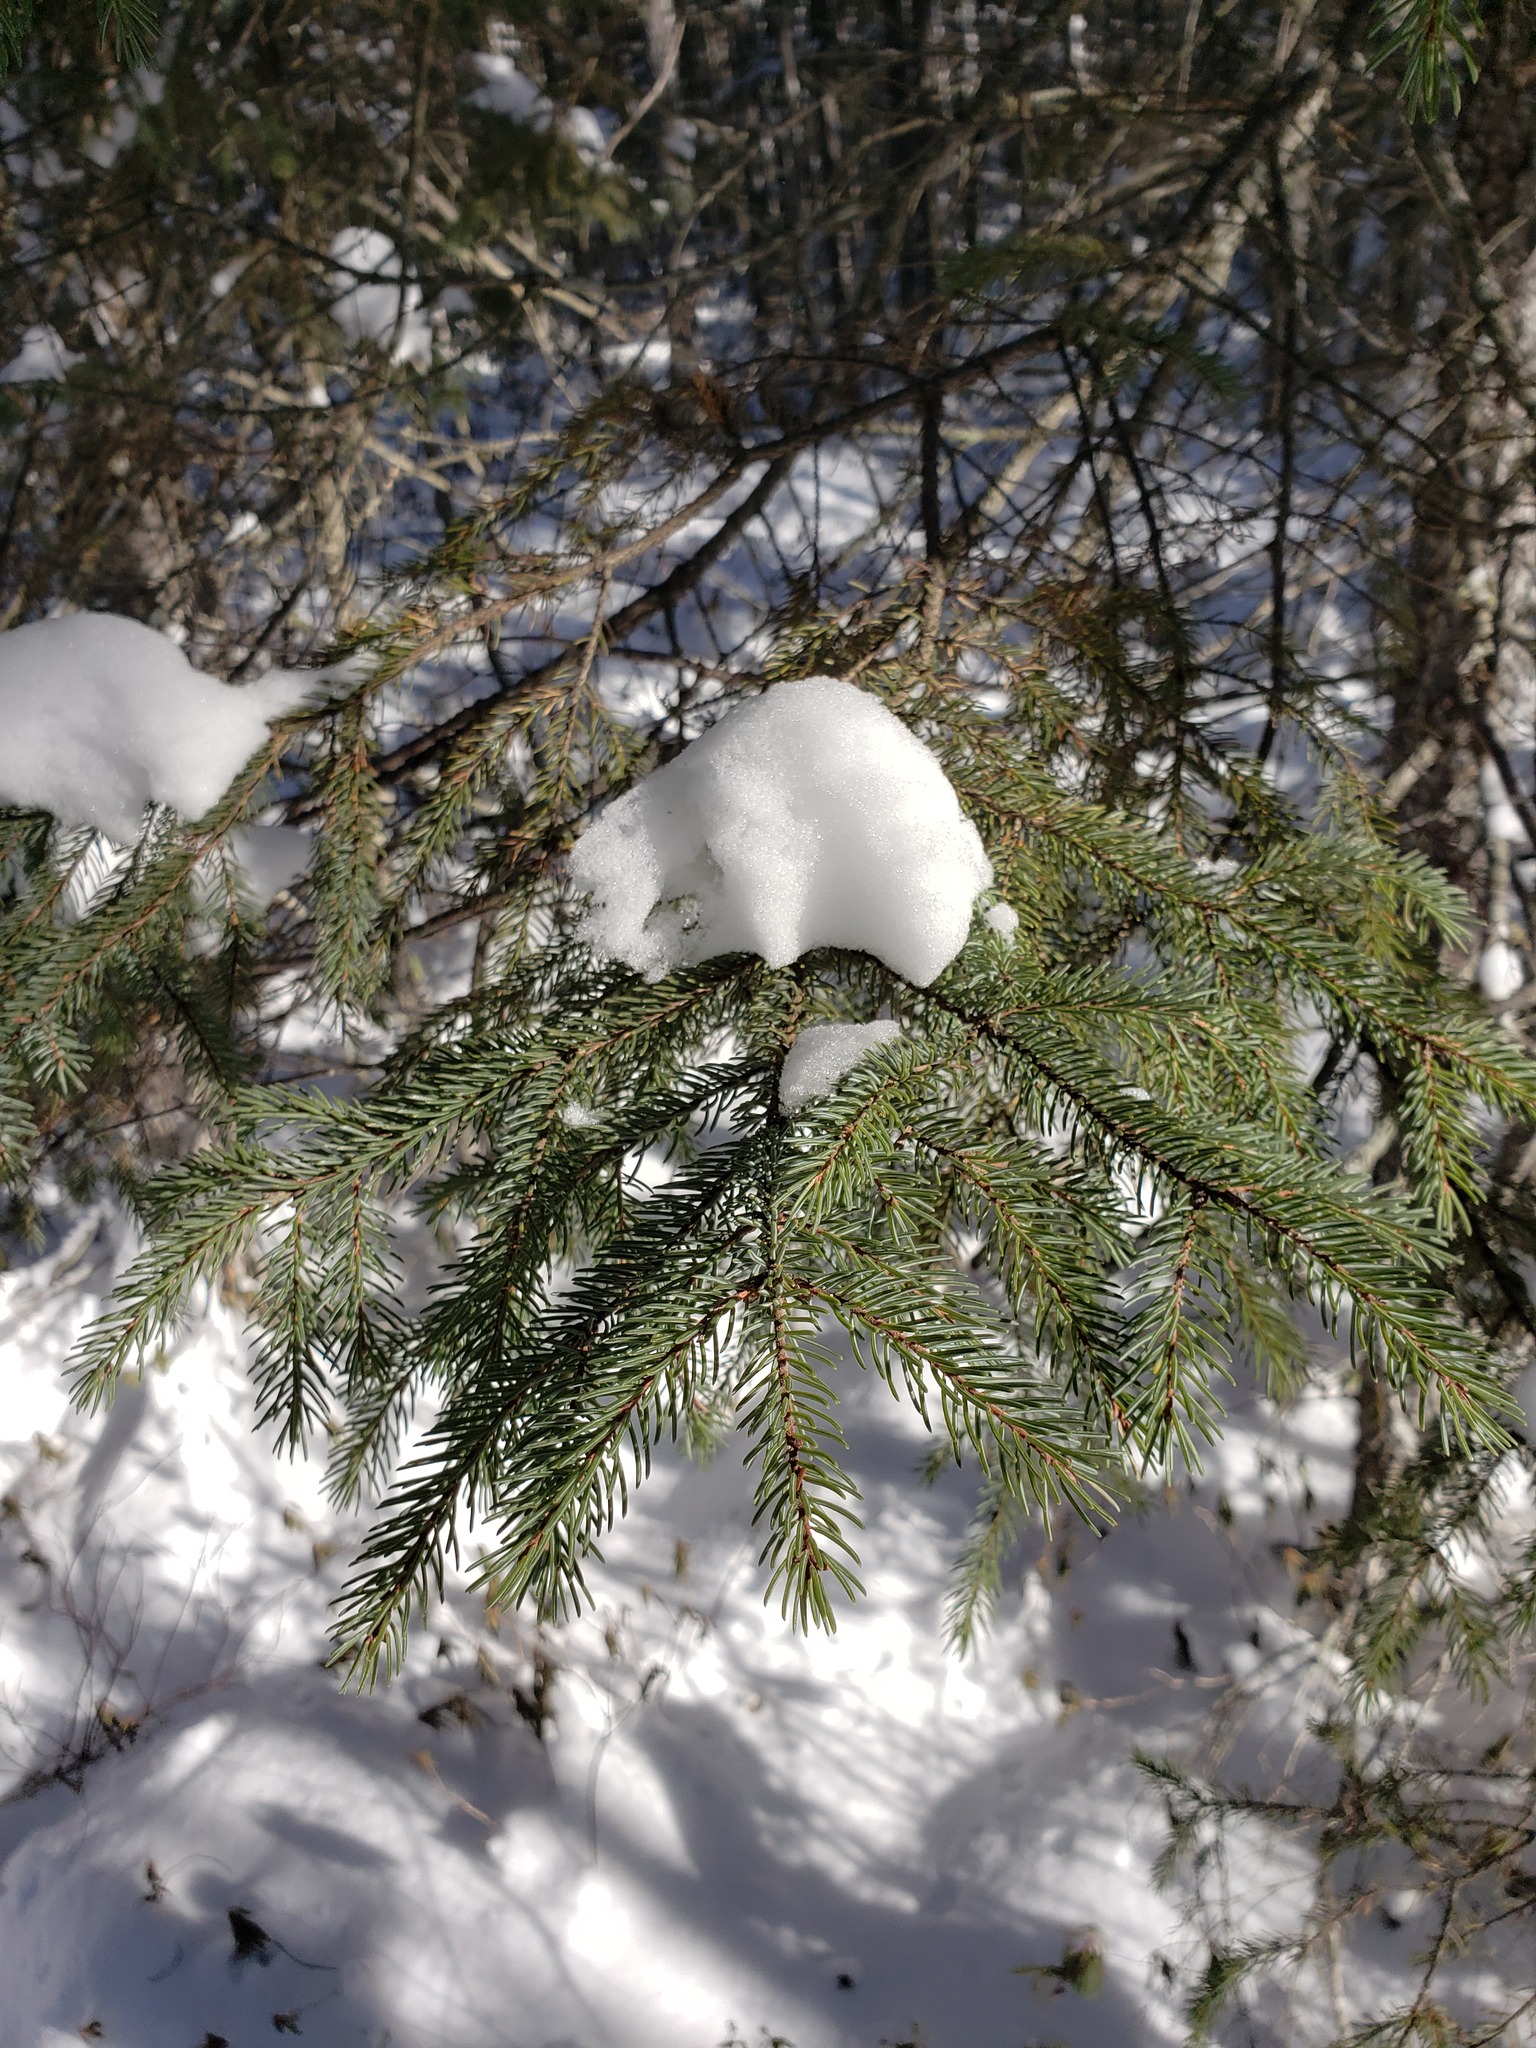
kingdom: Plantae
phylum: Tracheophyta
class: Pinopsida
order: Pinales
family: Pinaceae
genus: Picea
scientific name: Picea mariana
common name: Black spruce
